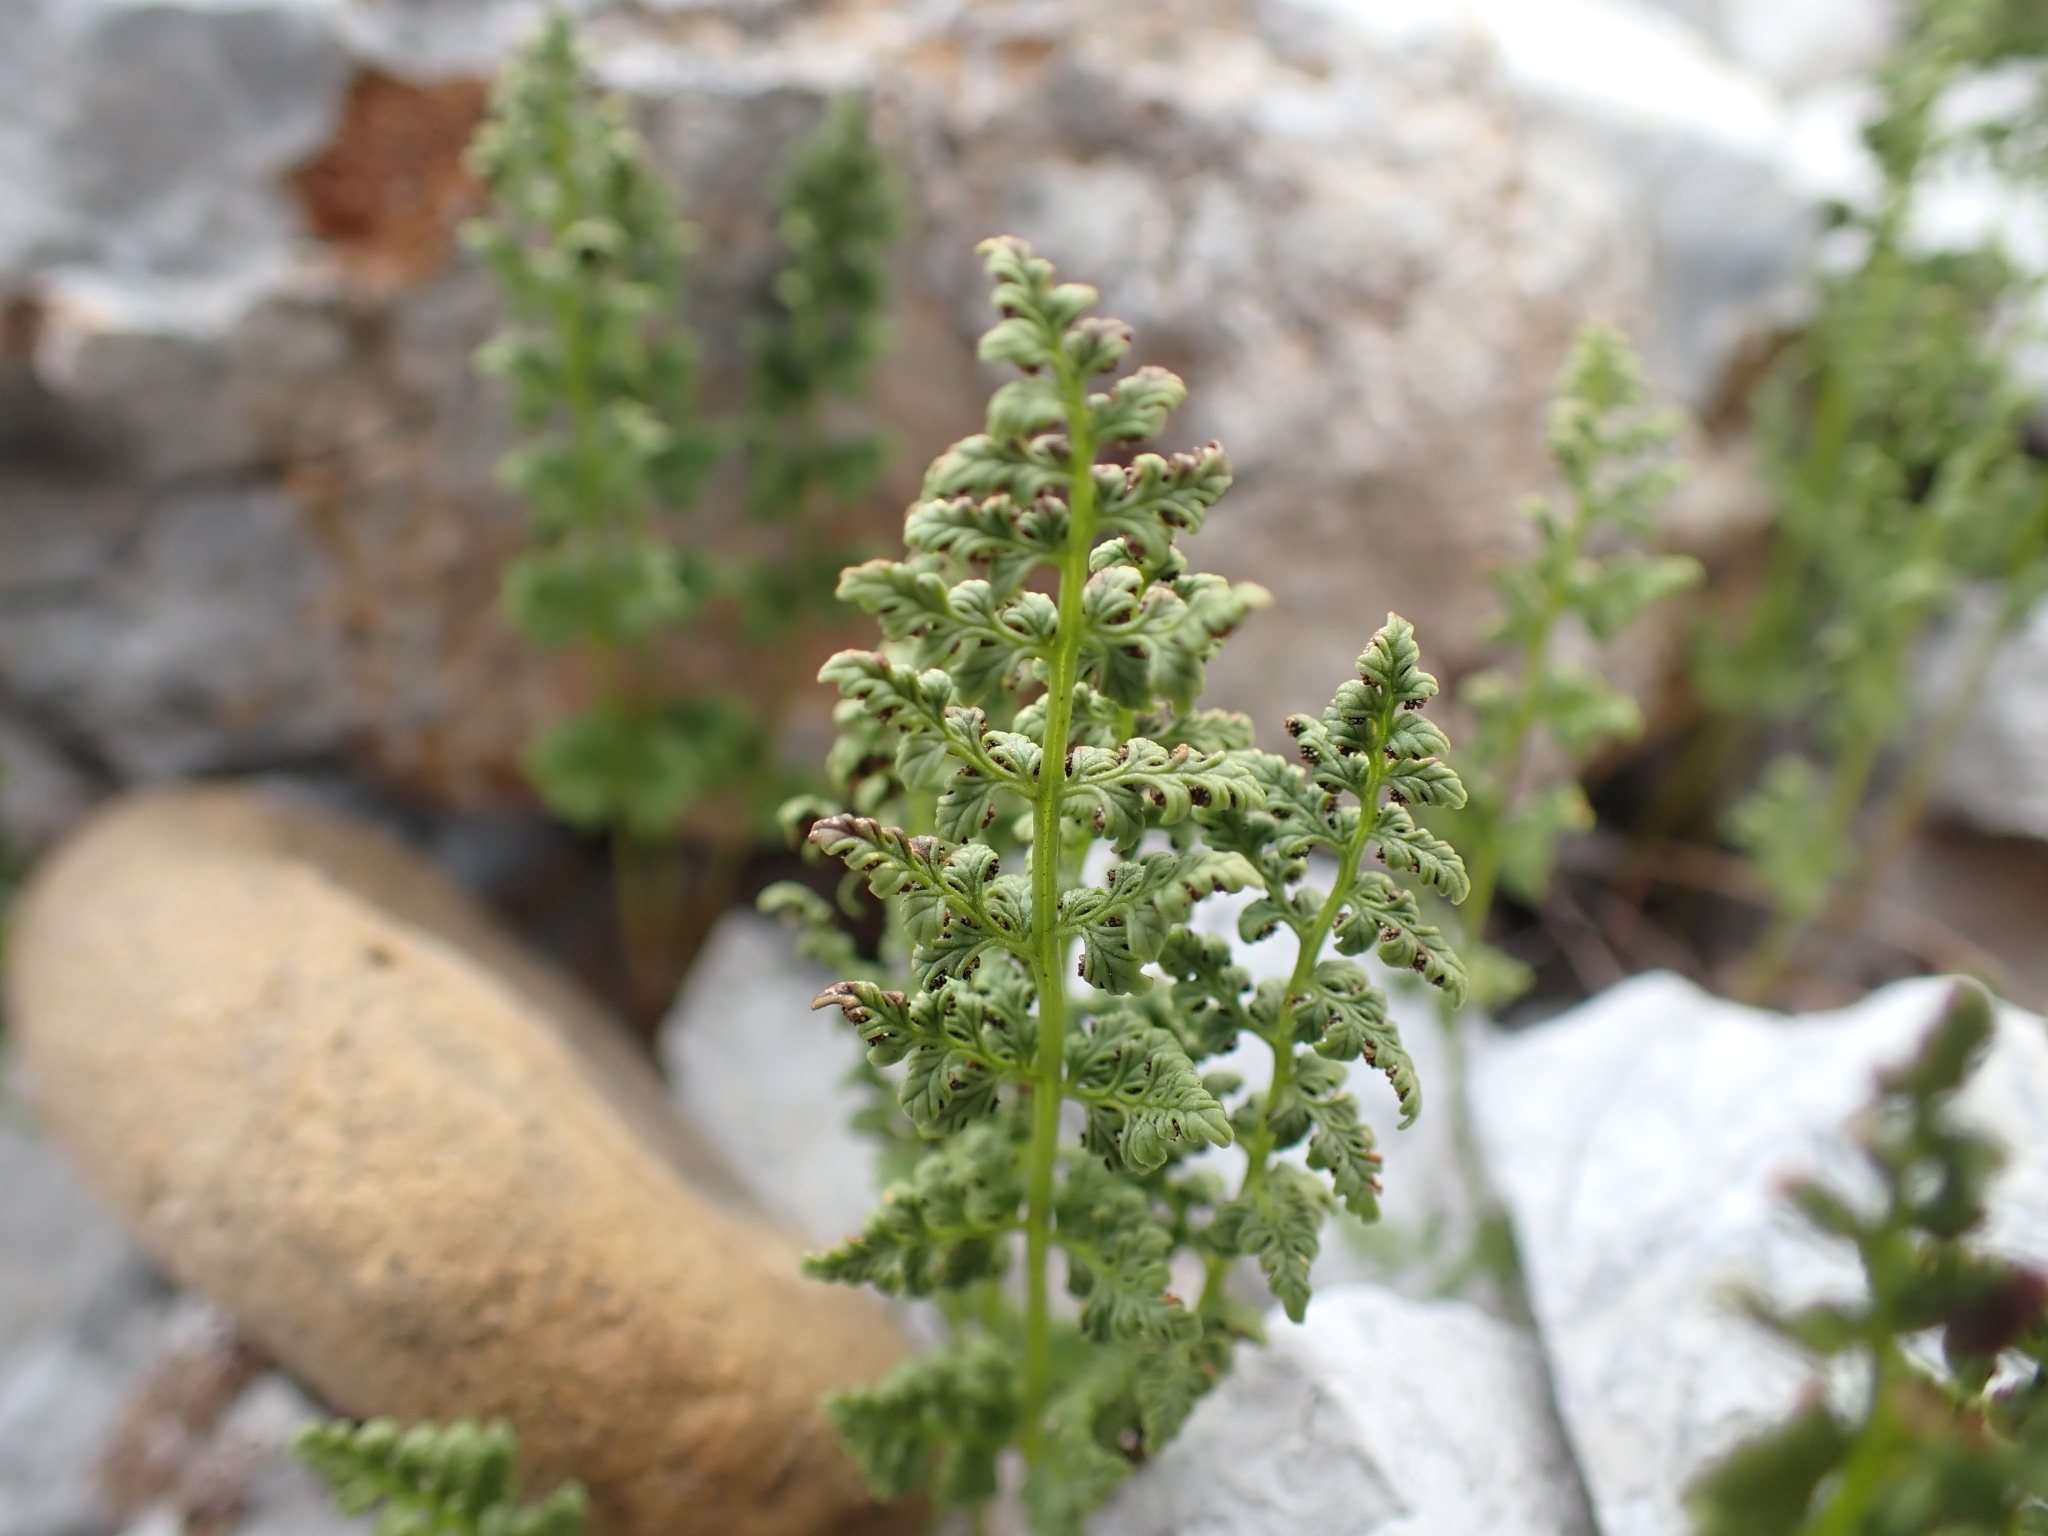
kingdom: Plantae
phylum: Tracheophyta
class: Polypodiopsida
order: Polypodiales
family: Cystopteridaceae
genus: Cystopteris
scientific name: Cystopteris fragilis
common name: Brittle bladder fern
